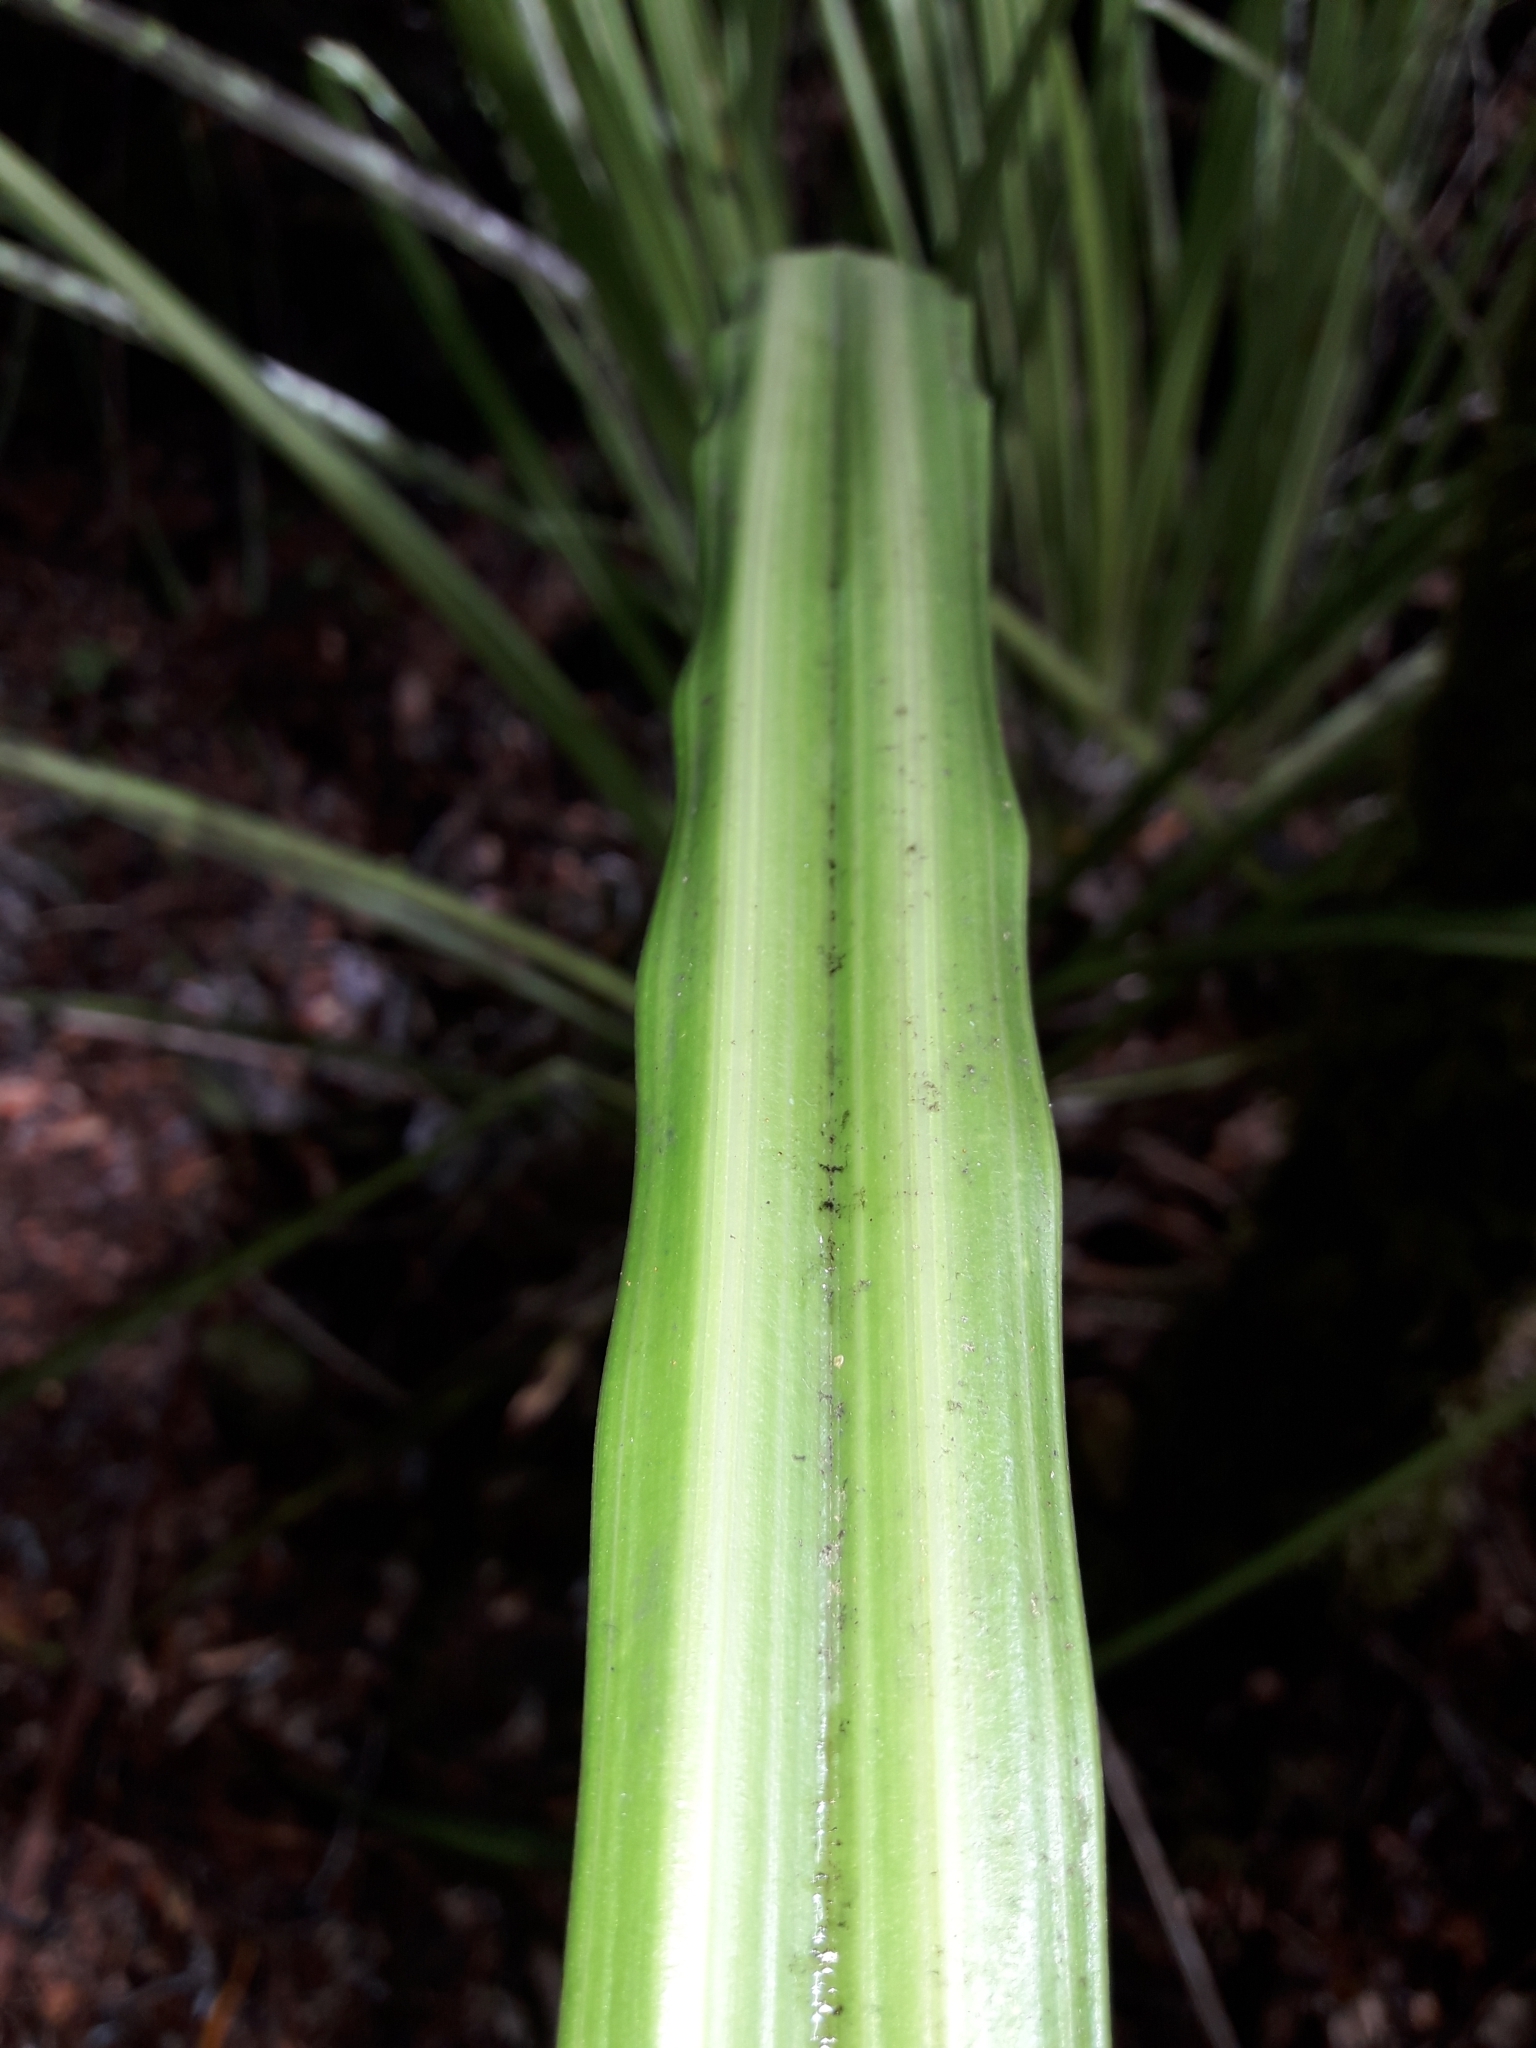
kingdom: Plantae
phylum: Tracheophyta
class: Liliopsida
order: Asparagales
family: Asteliaceae
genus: Astelia
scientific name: Astelia trinervia
